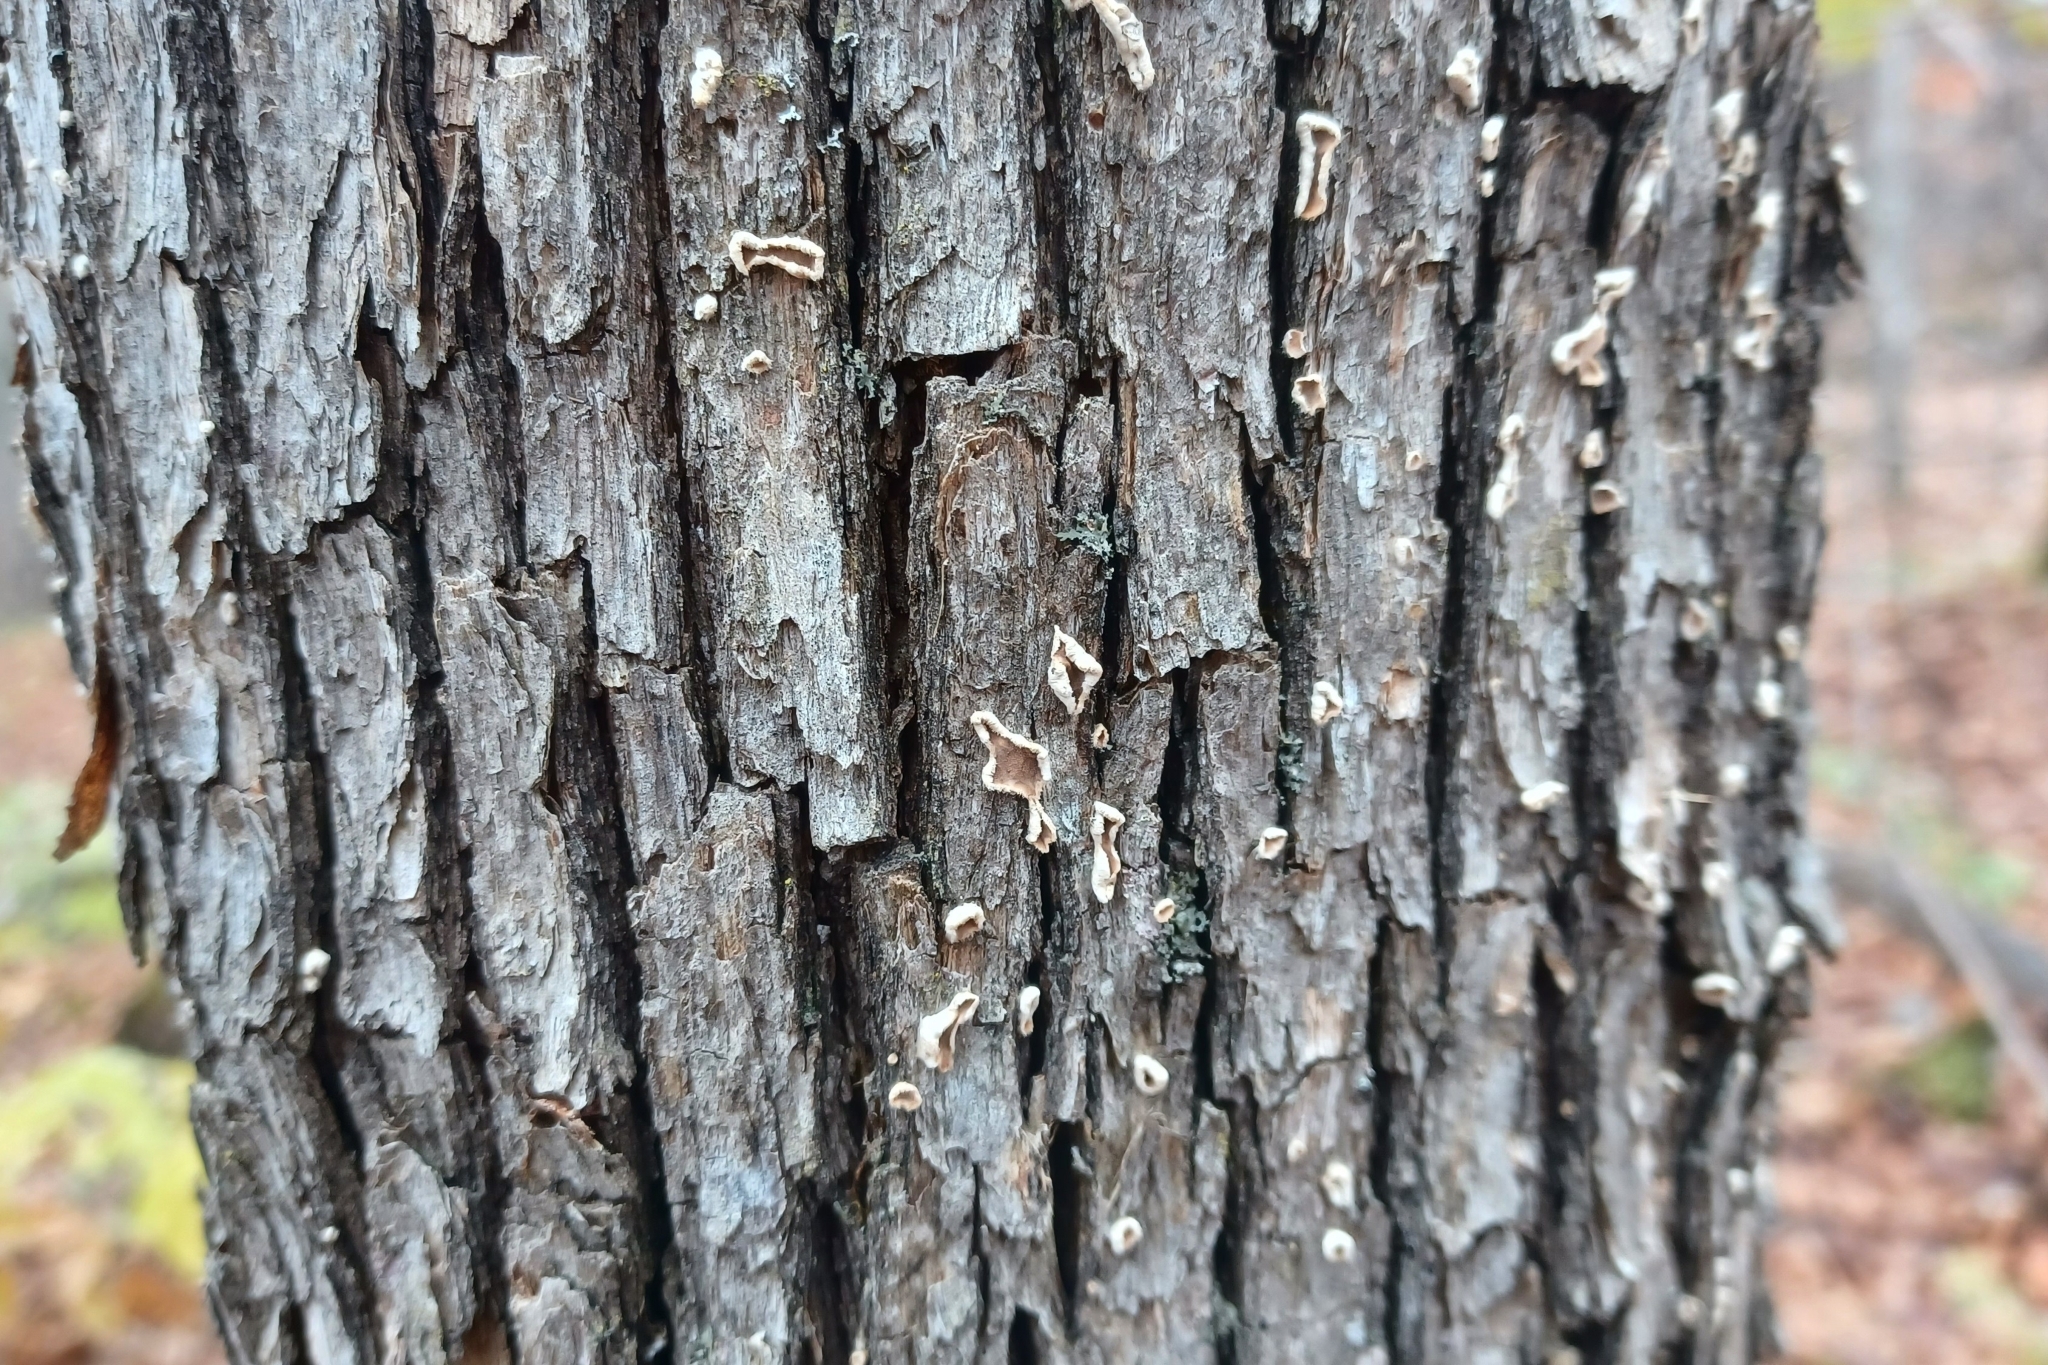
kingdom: Fungi
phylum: Basidiomycota
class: Agaricomycetes
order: Russulales
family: Stereaceae
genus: Acanthophysium
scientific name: Acanthophysium oakesii
